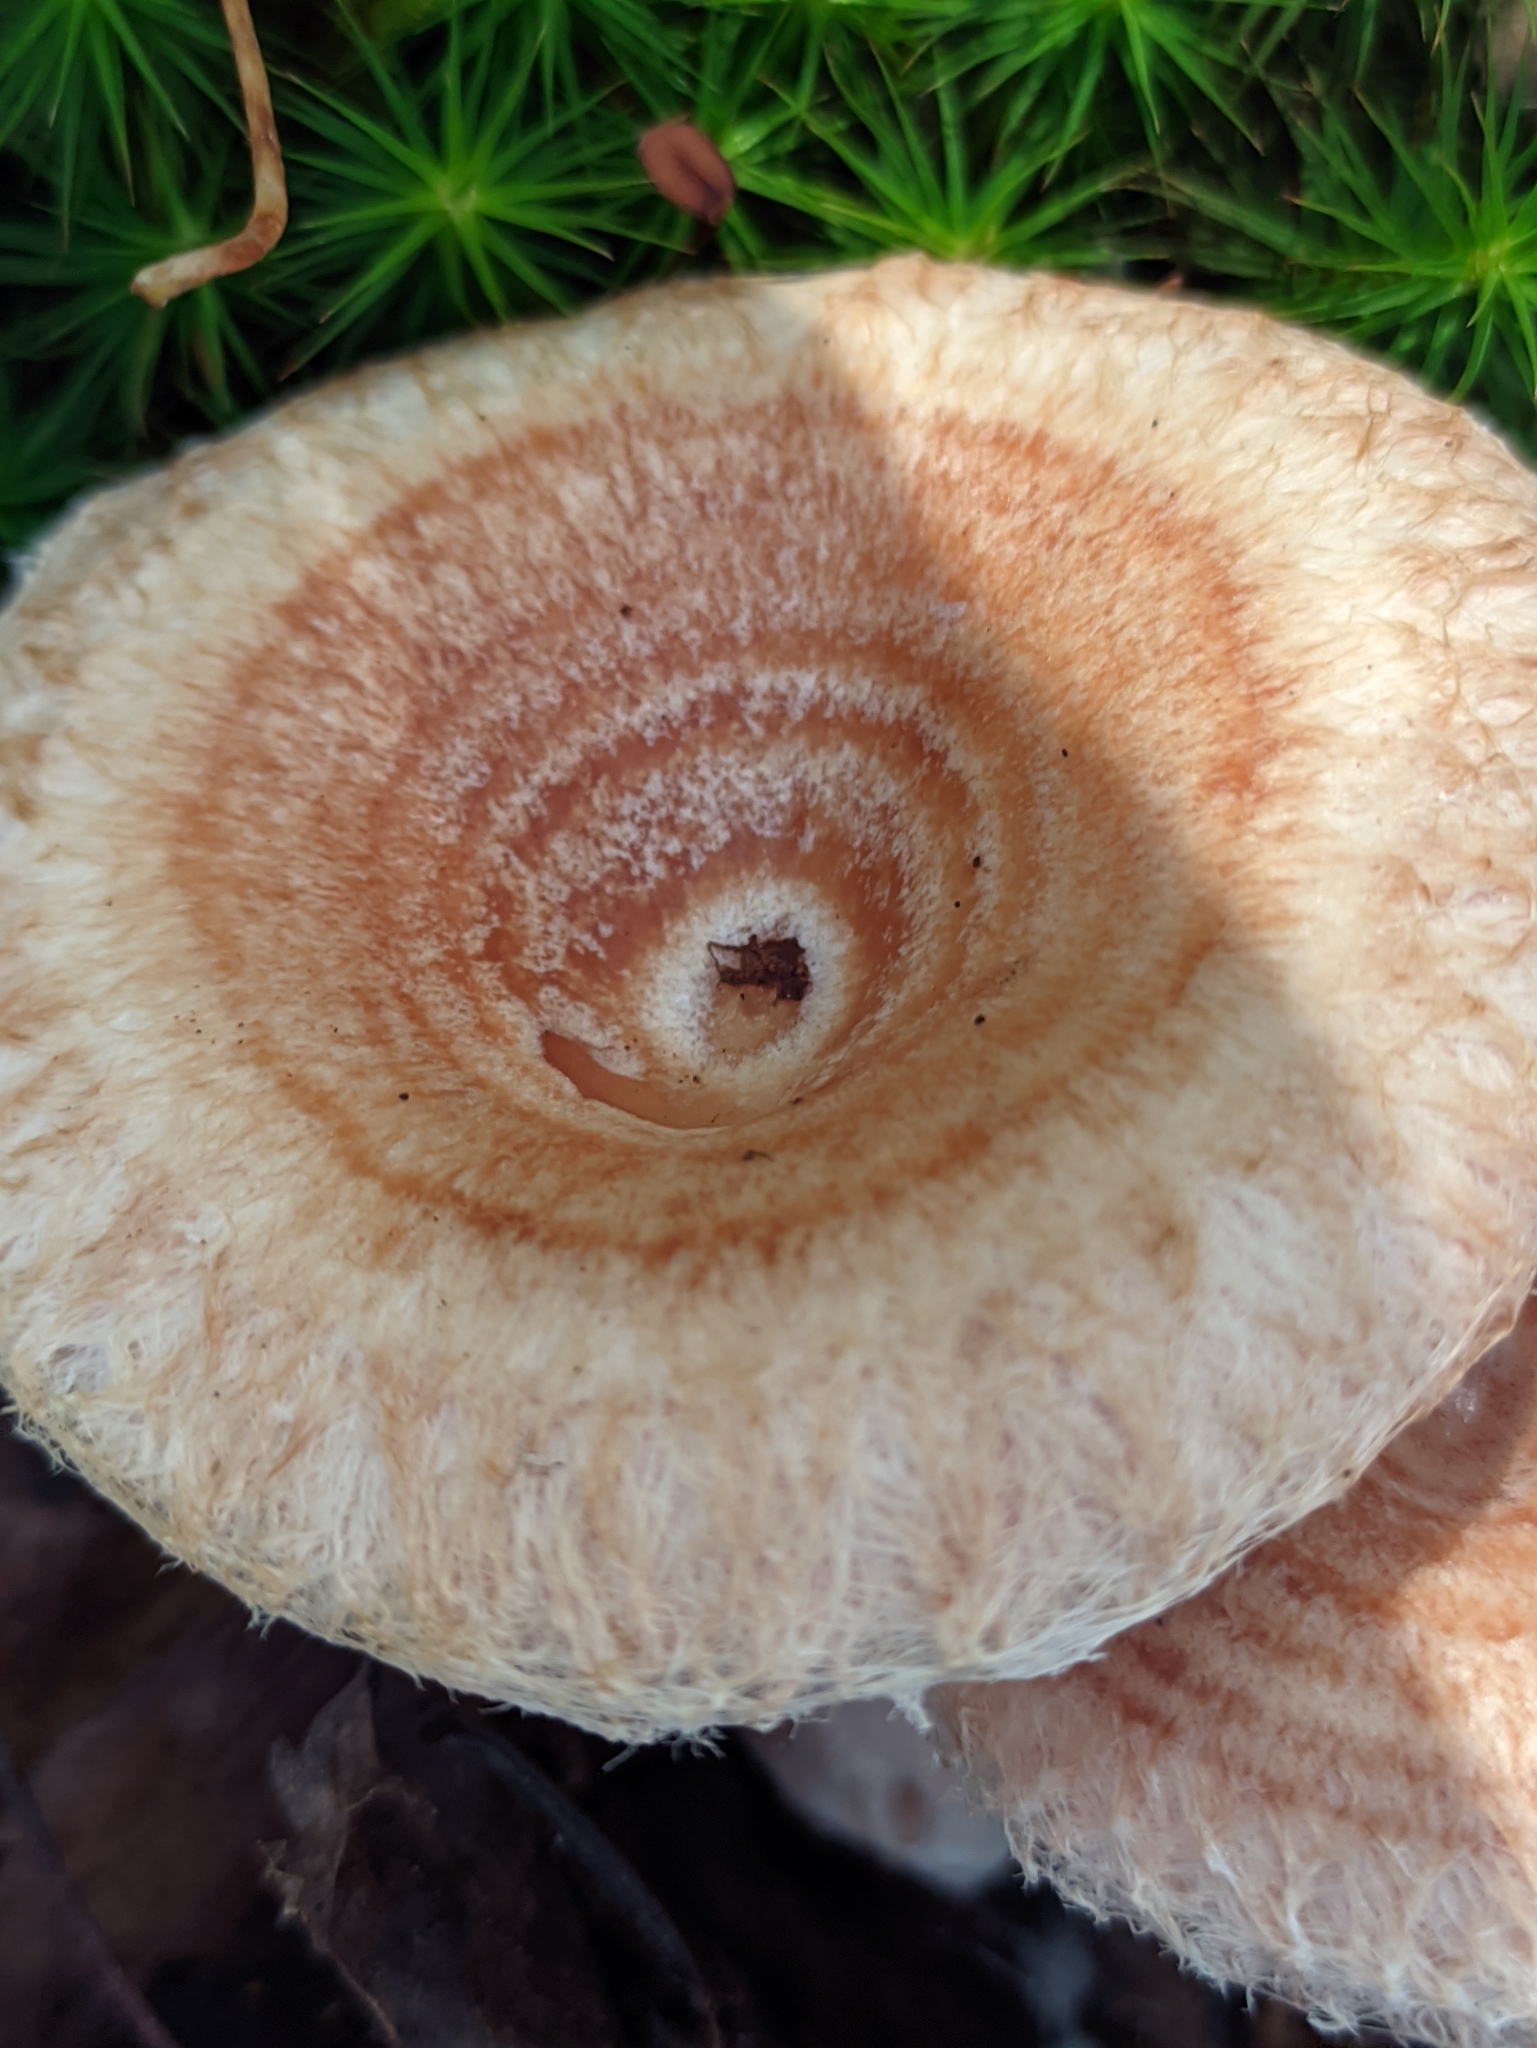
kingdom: Fungi
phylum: Basidiomycota
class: Agaricomycetes
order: Russulales
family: Russulaceae
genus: Lactarius
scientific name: Lactarius torminosus
